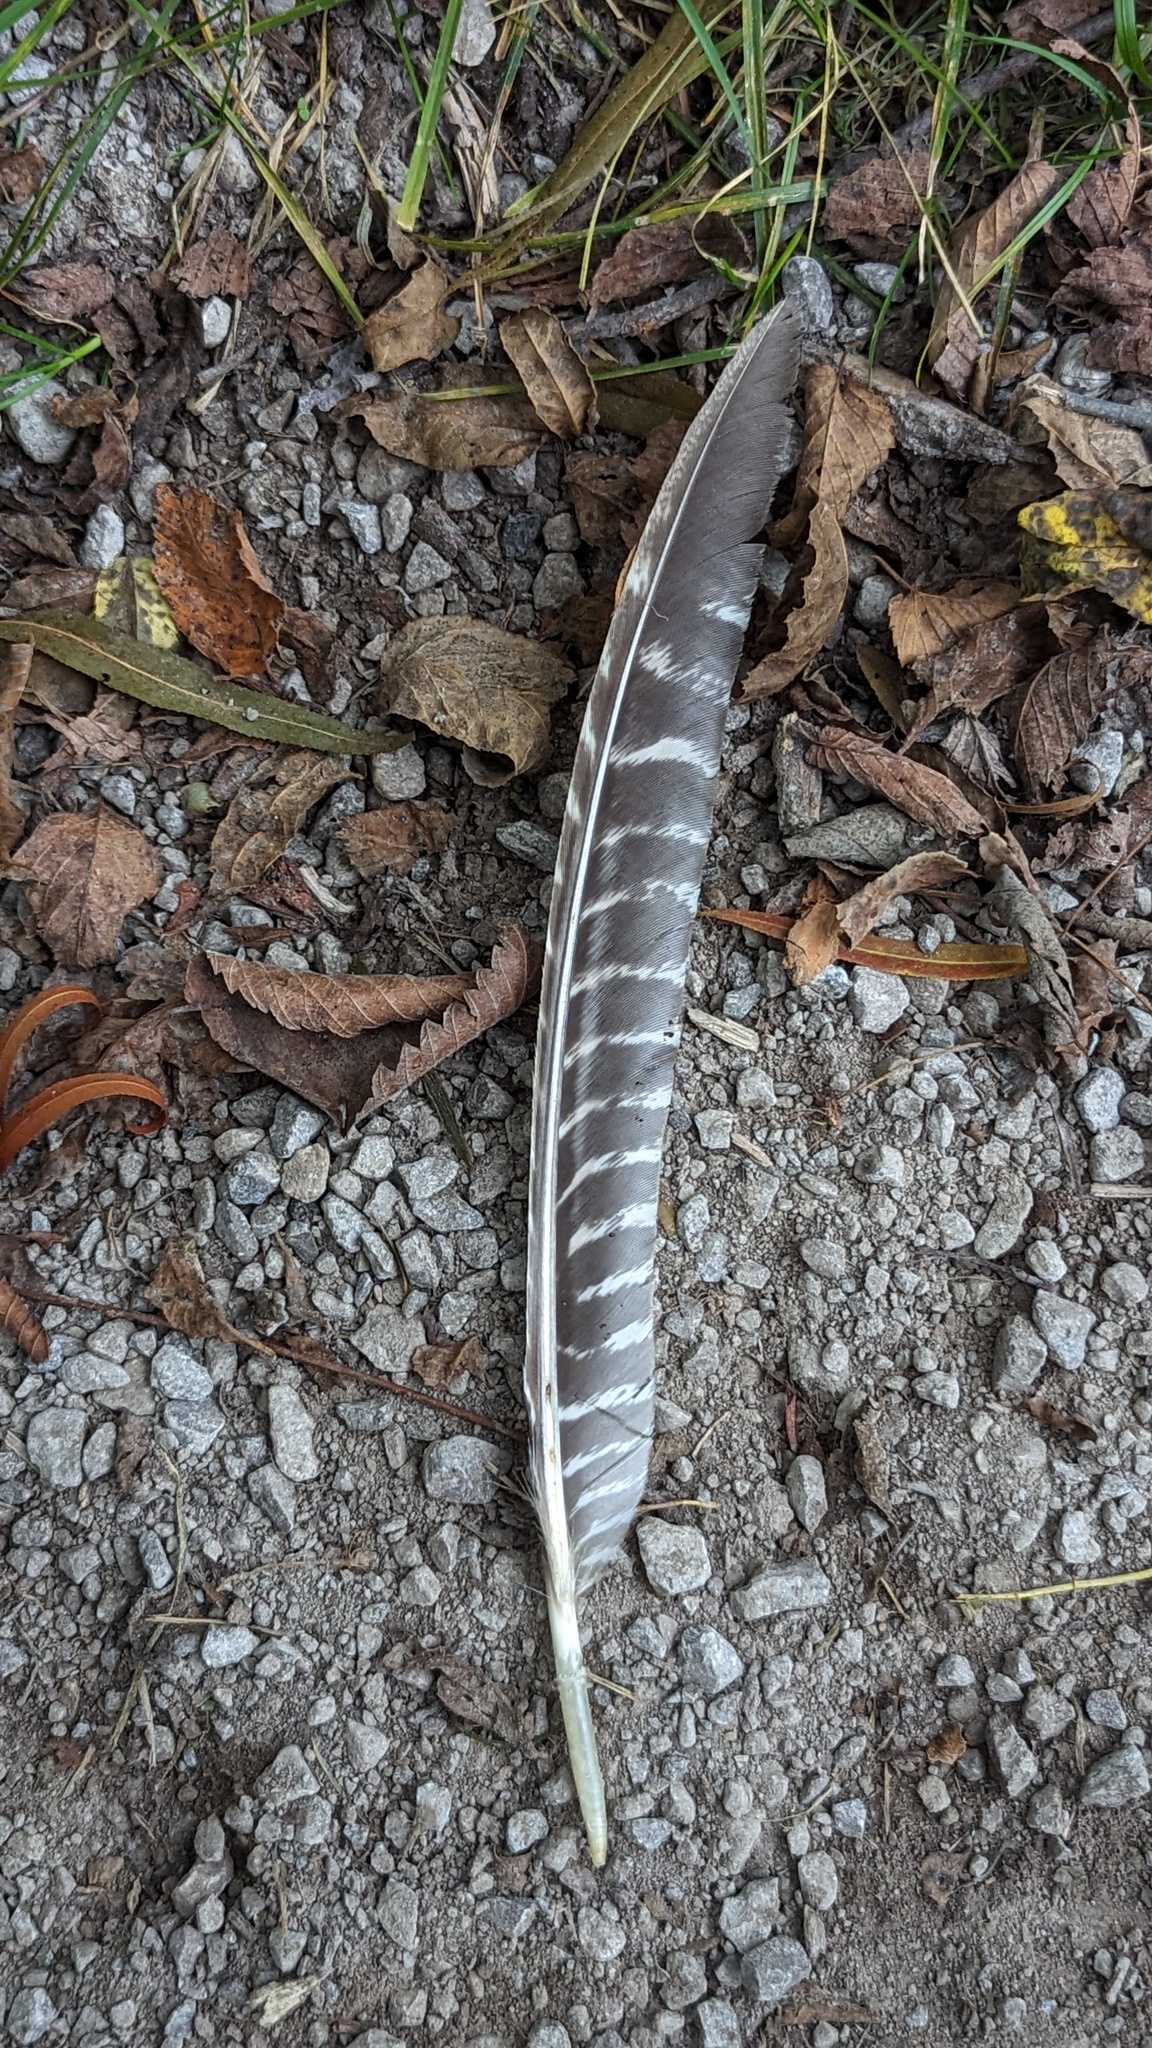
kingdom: Animalia
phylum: Chordata
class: Aves
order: Galliformes
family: Phasianidae
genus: Meleagris
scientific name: Meleagris gallopavo
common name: Wild turkey
